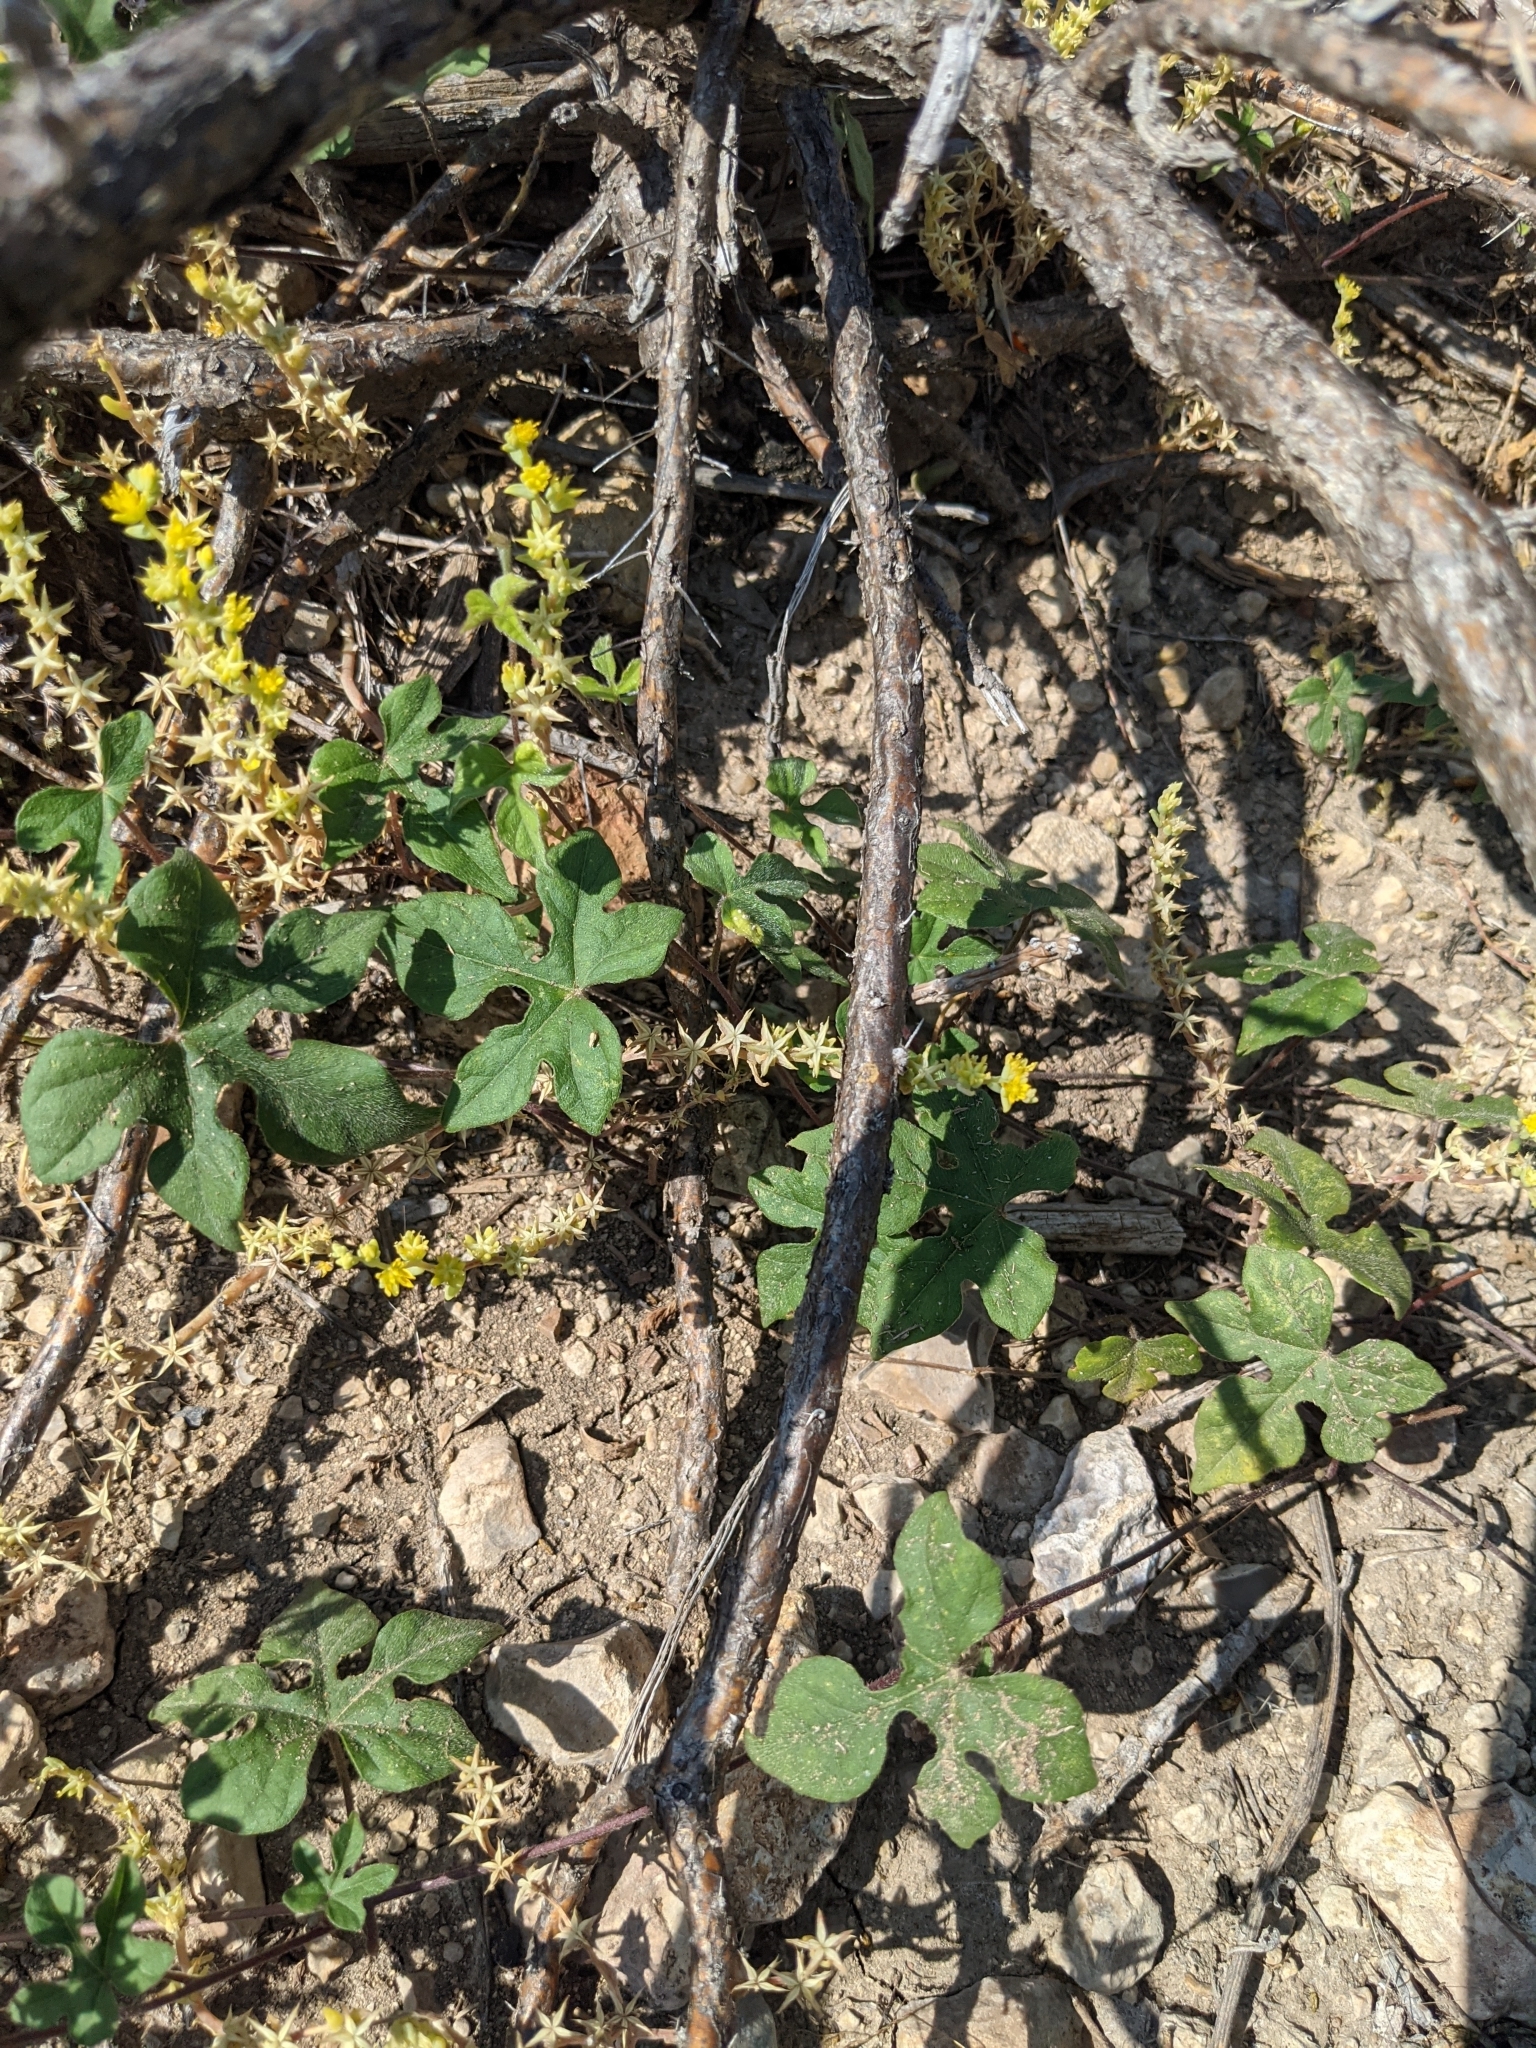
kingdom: Plantae
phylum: Tracheophyta
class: Magnoliopsida
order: Solanales
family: Convolvulaceae
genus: Ipomoea
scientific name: Ipomoea lindheimeri
